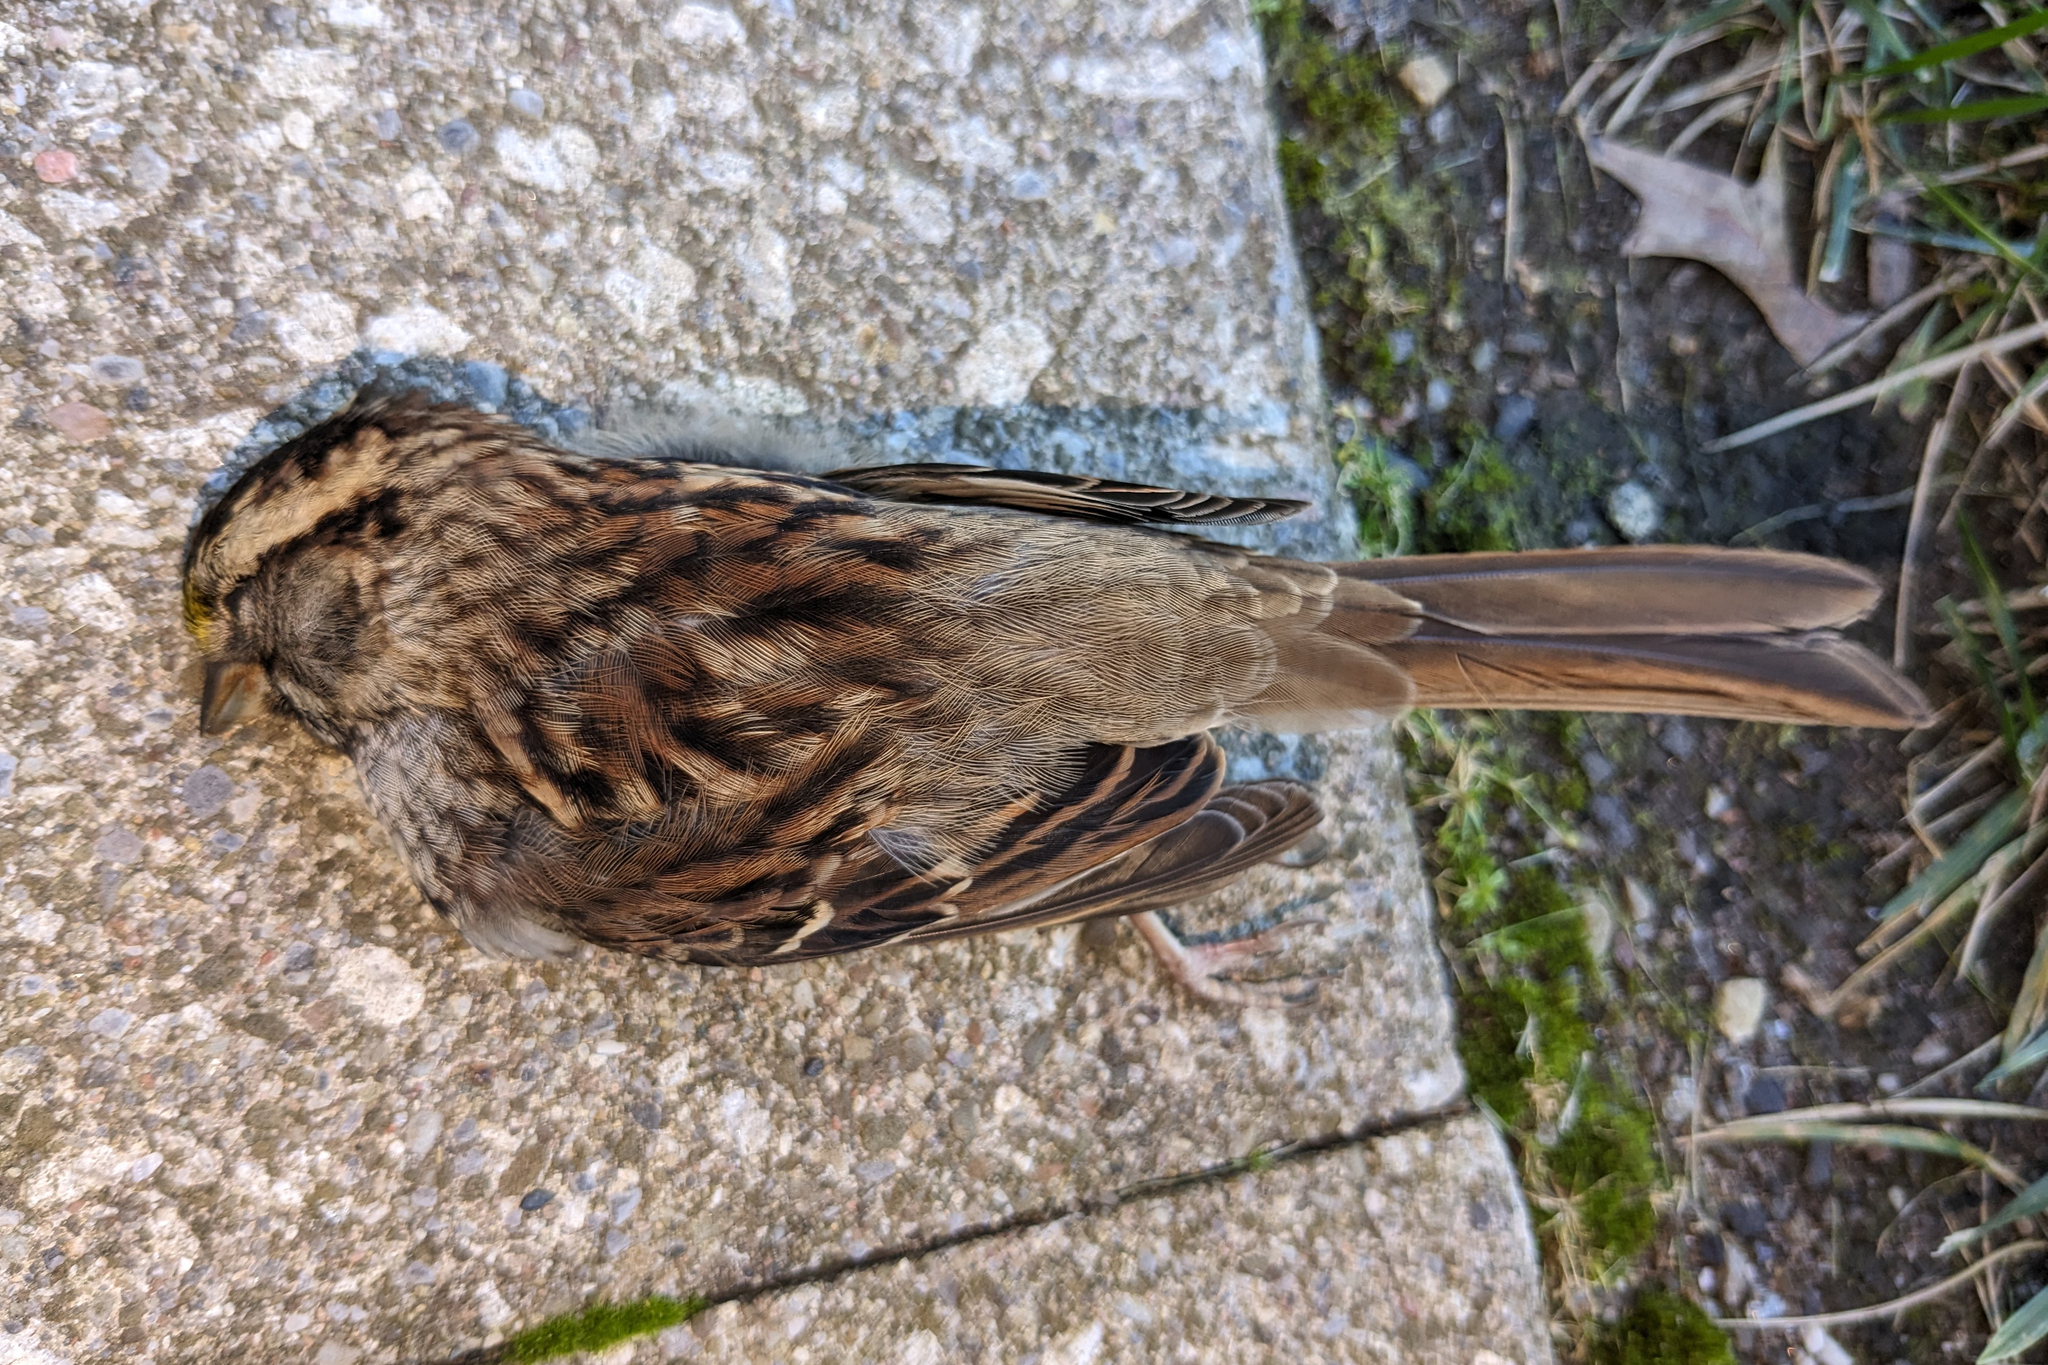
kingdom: Animalia
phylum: Chordata
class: Aves
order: Passeriformes
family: Passerellidae
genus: Zonotrichia
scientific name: Zonotrichia albicollis
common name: White-throated sparrow
